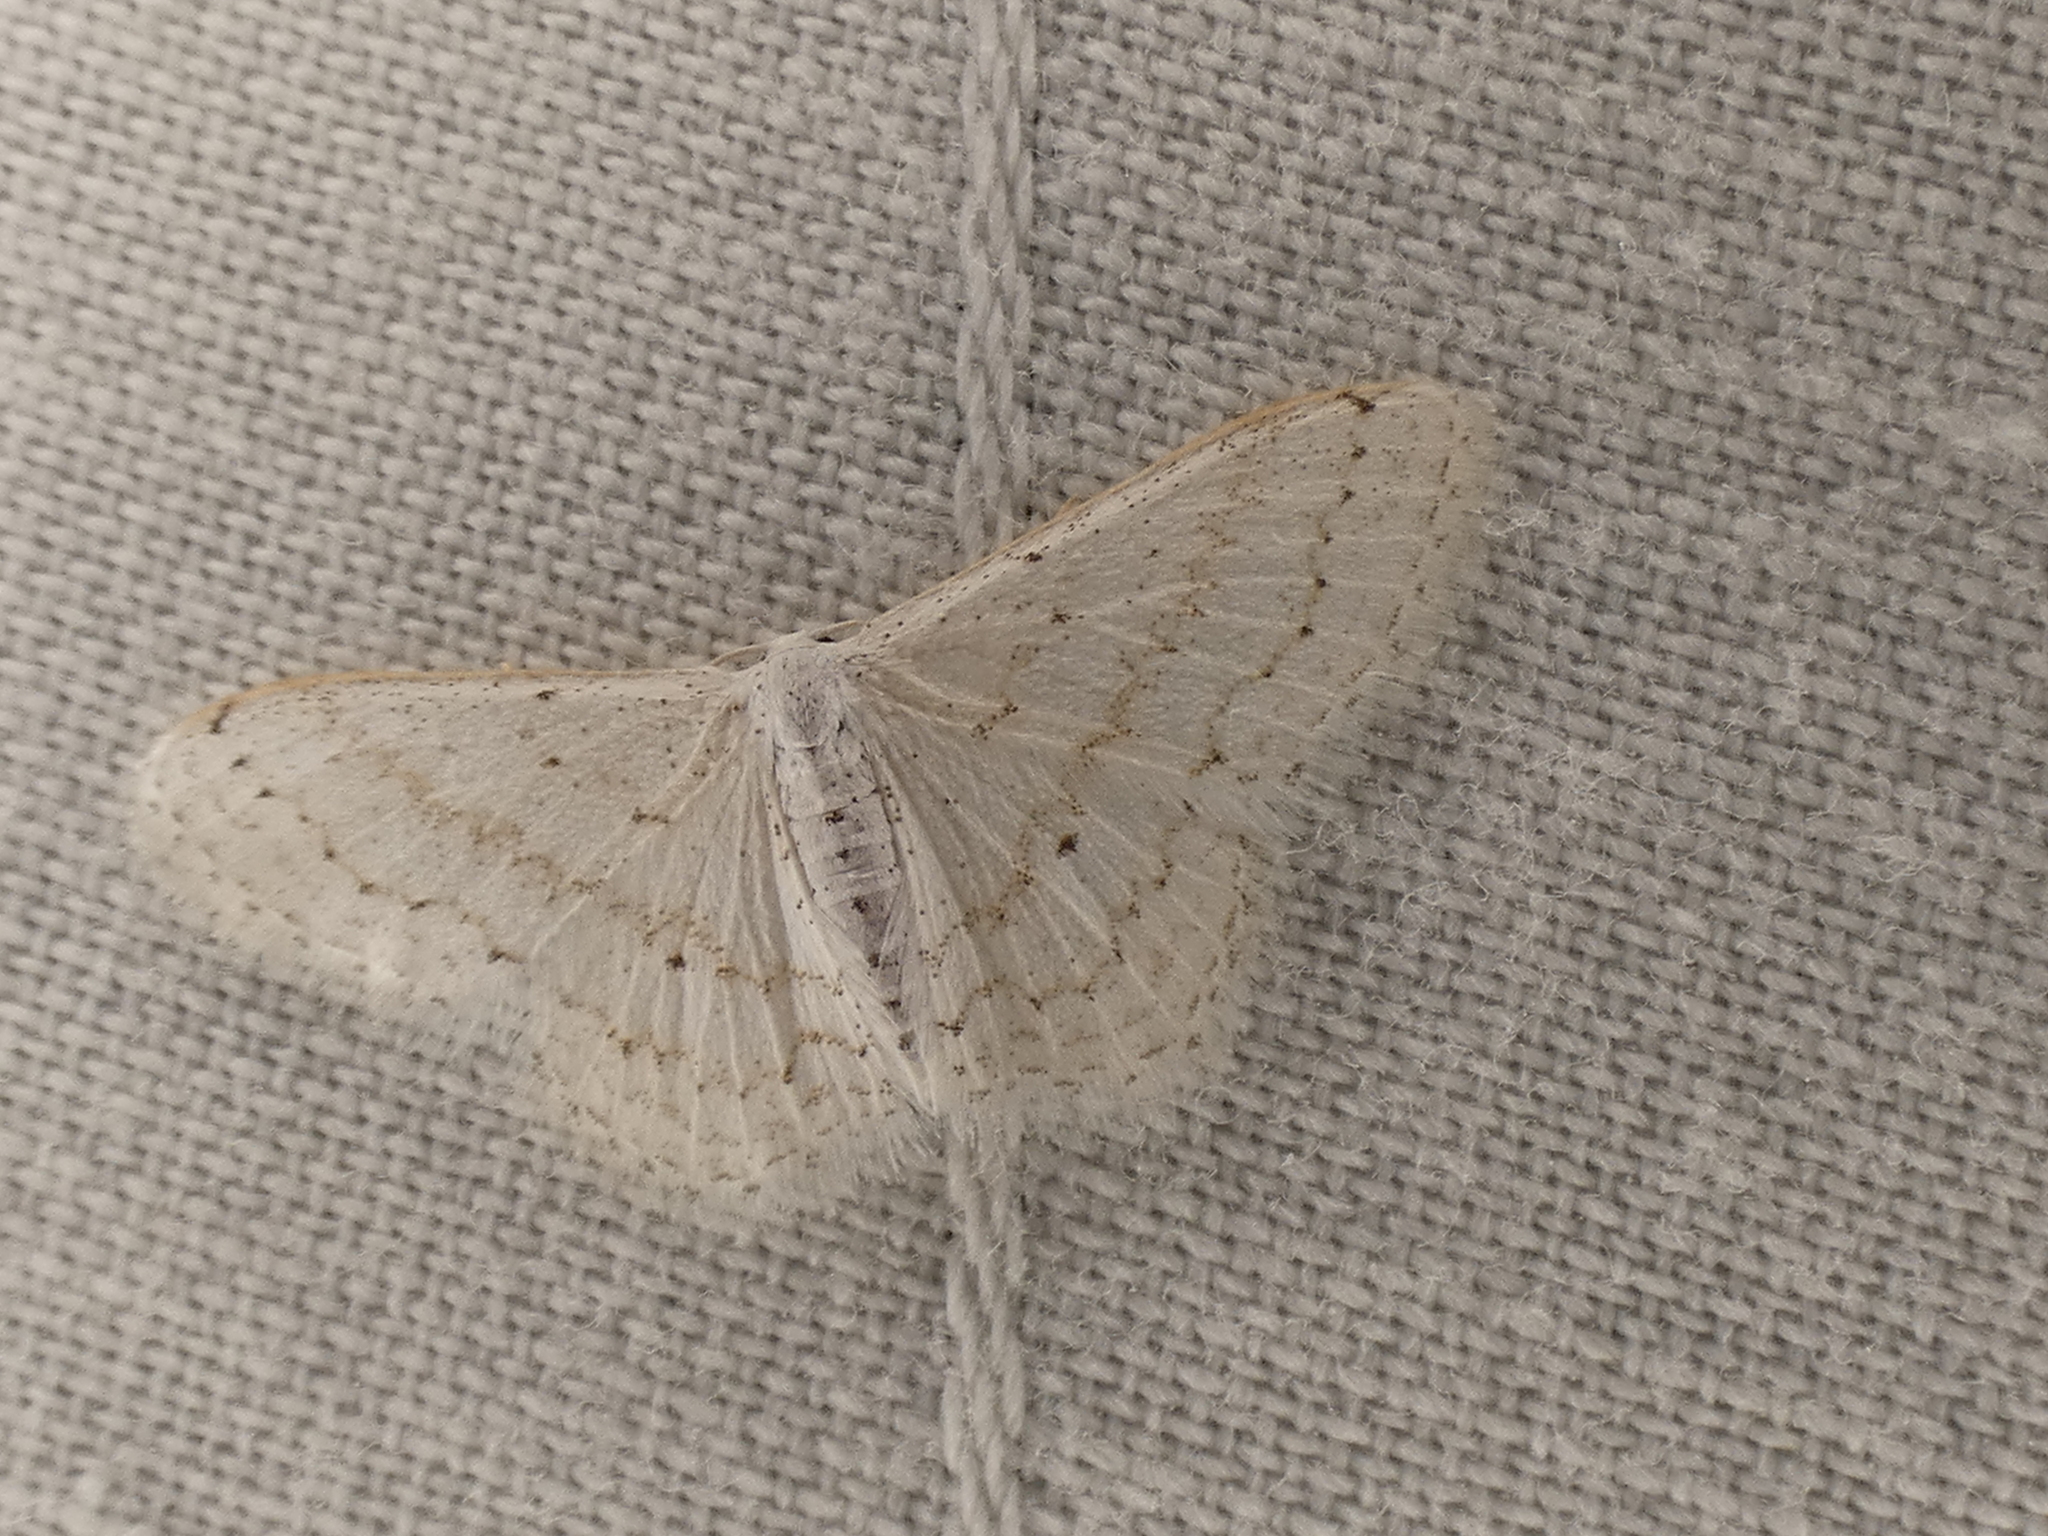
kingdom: Animalia
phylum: Arthropoda
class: Insecta
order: Lepidoptera
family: Geometridae
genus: Idaea
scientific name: Idaea tacturata
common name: Dot-lined wave
